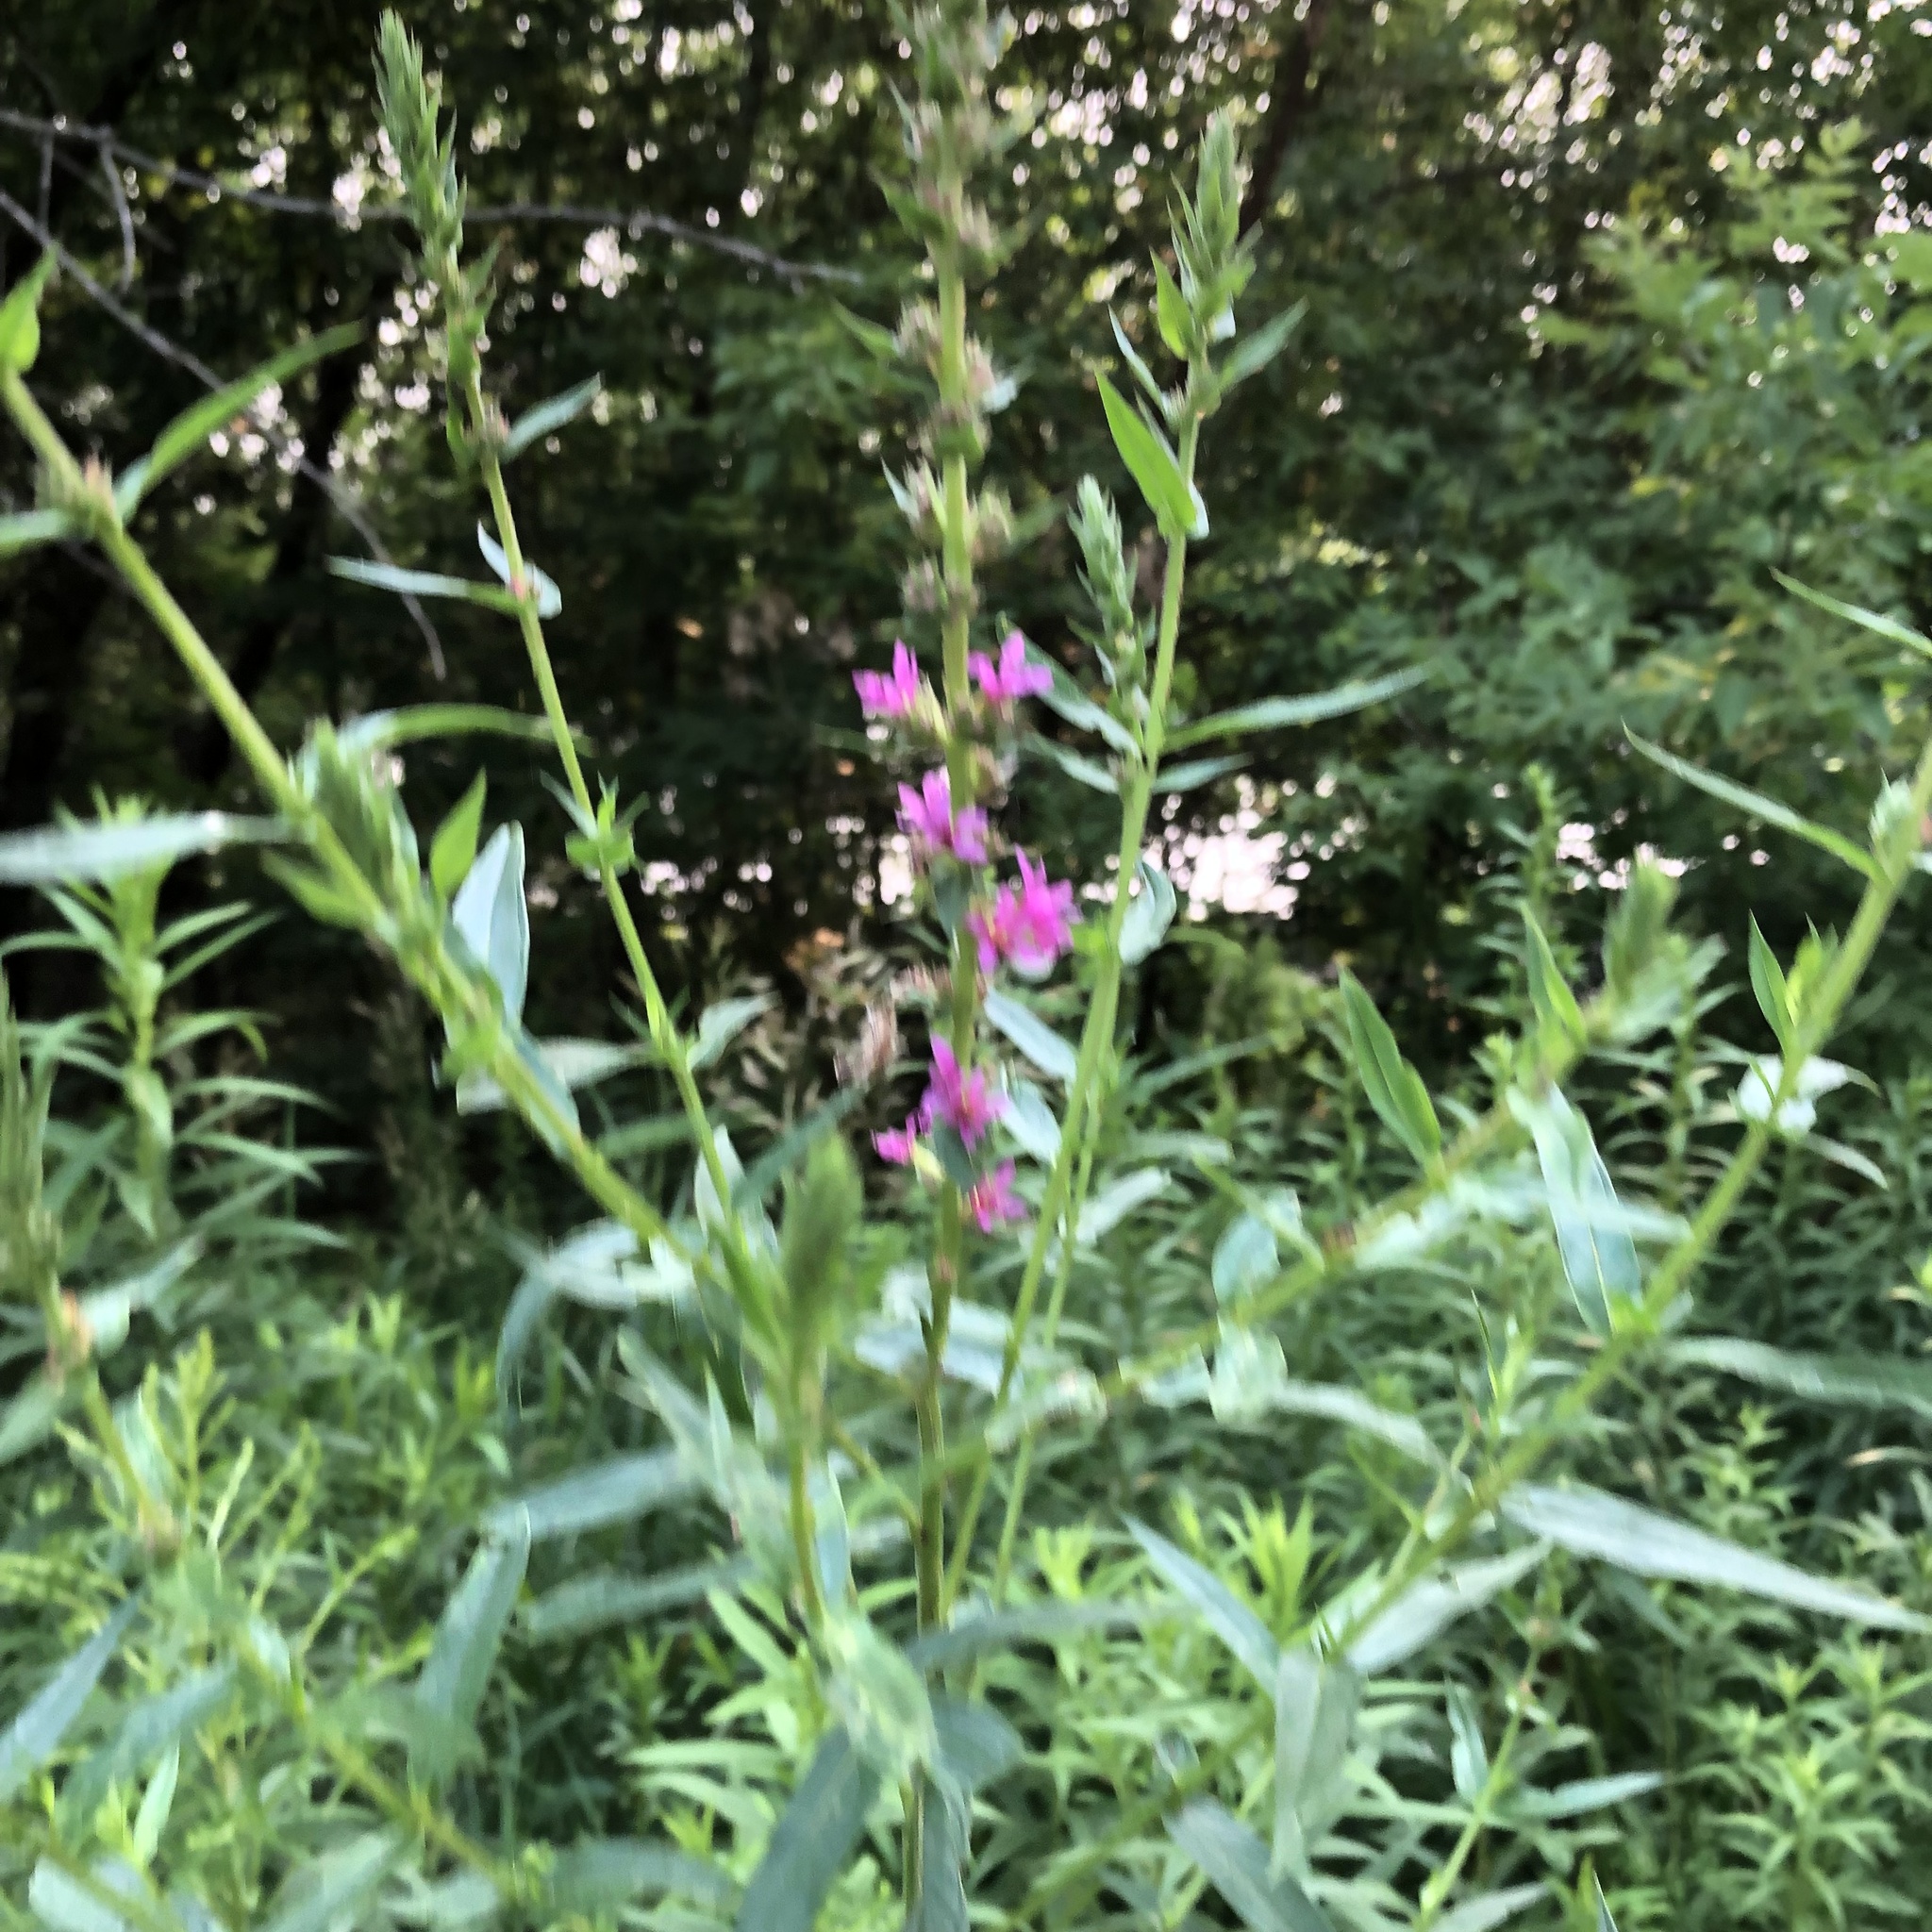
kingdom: Plantae
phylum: Tracheophyta
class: Magnoliopsida
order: Myrtales
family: Lythraceae
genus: Lythrum
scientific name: Lythrum salicaria
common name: Purple loosestrife
